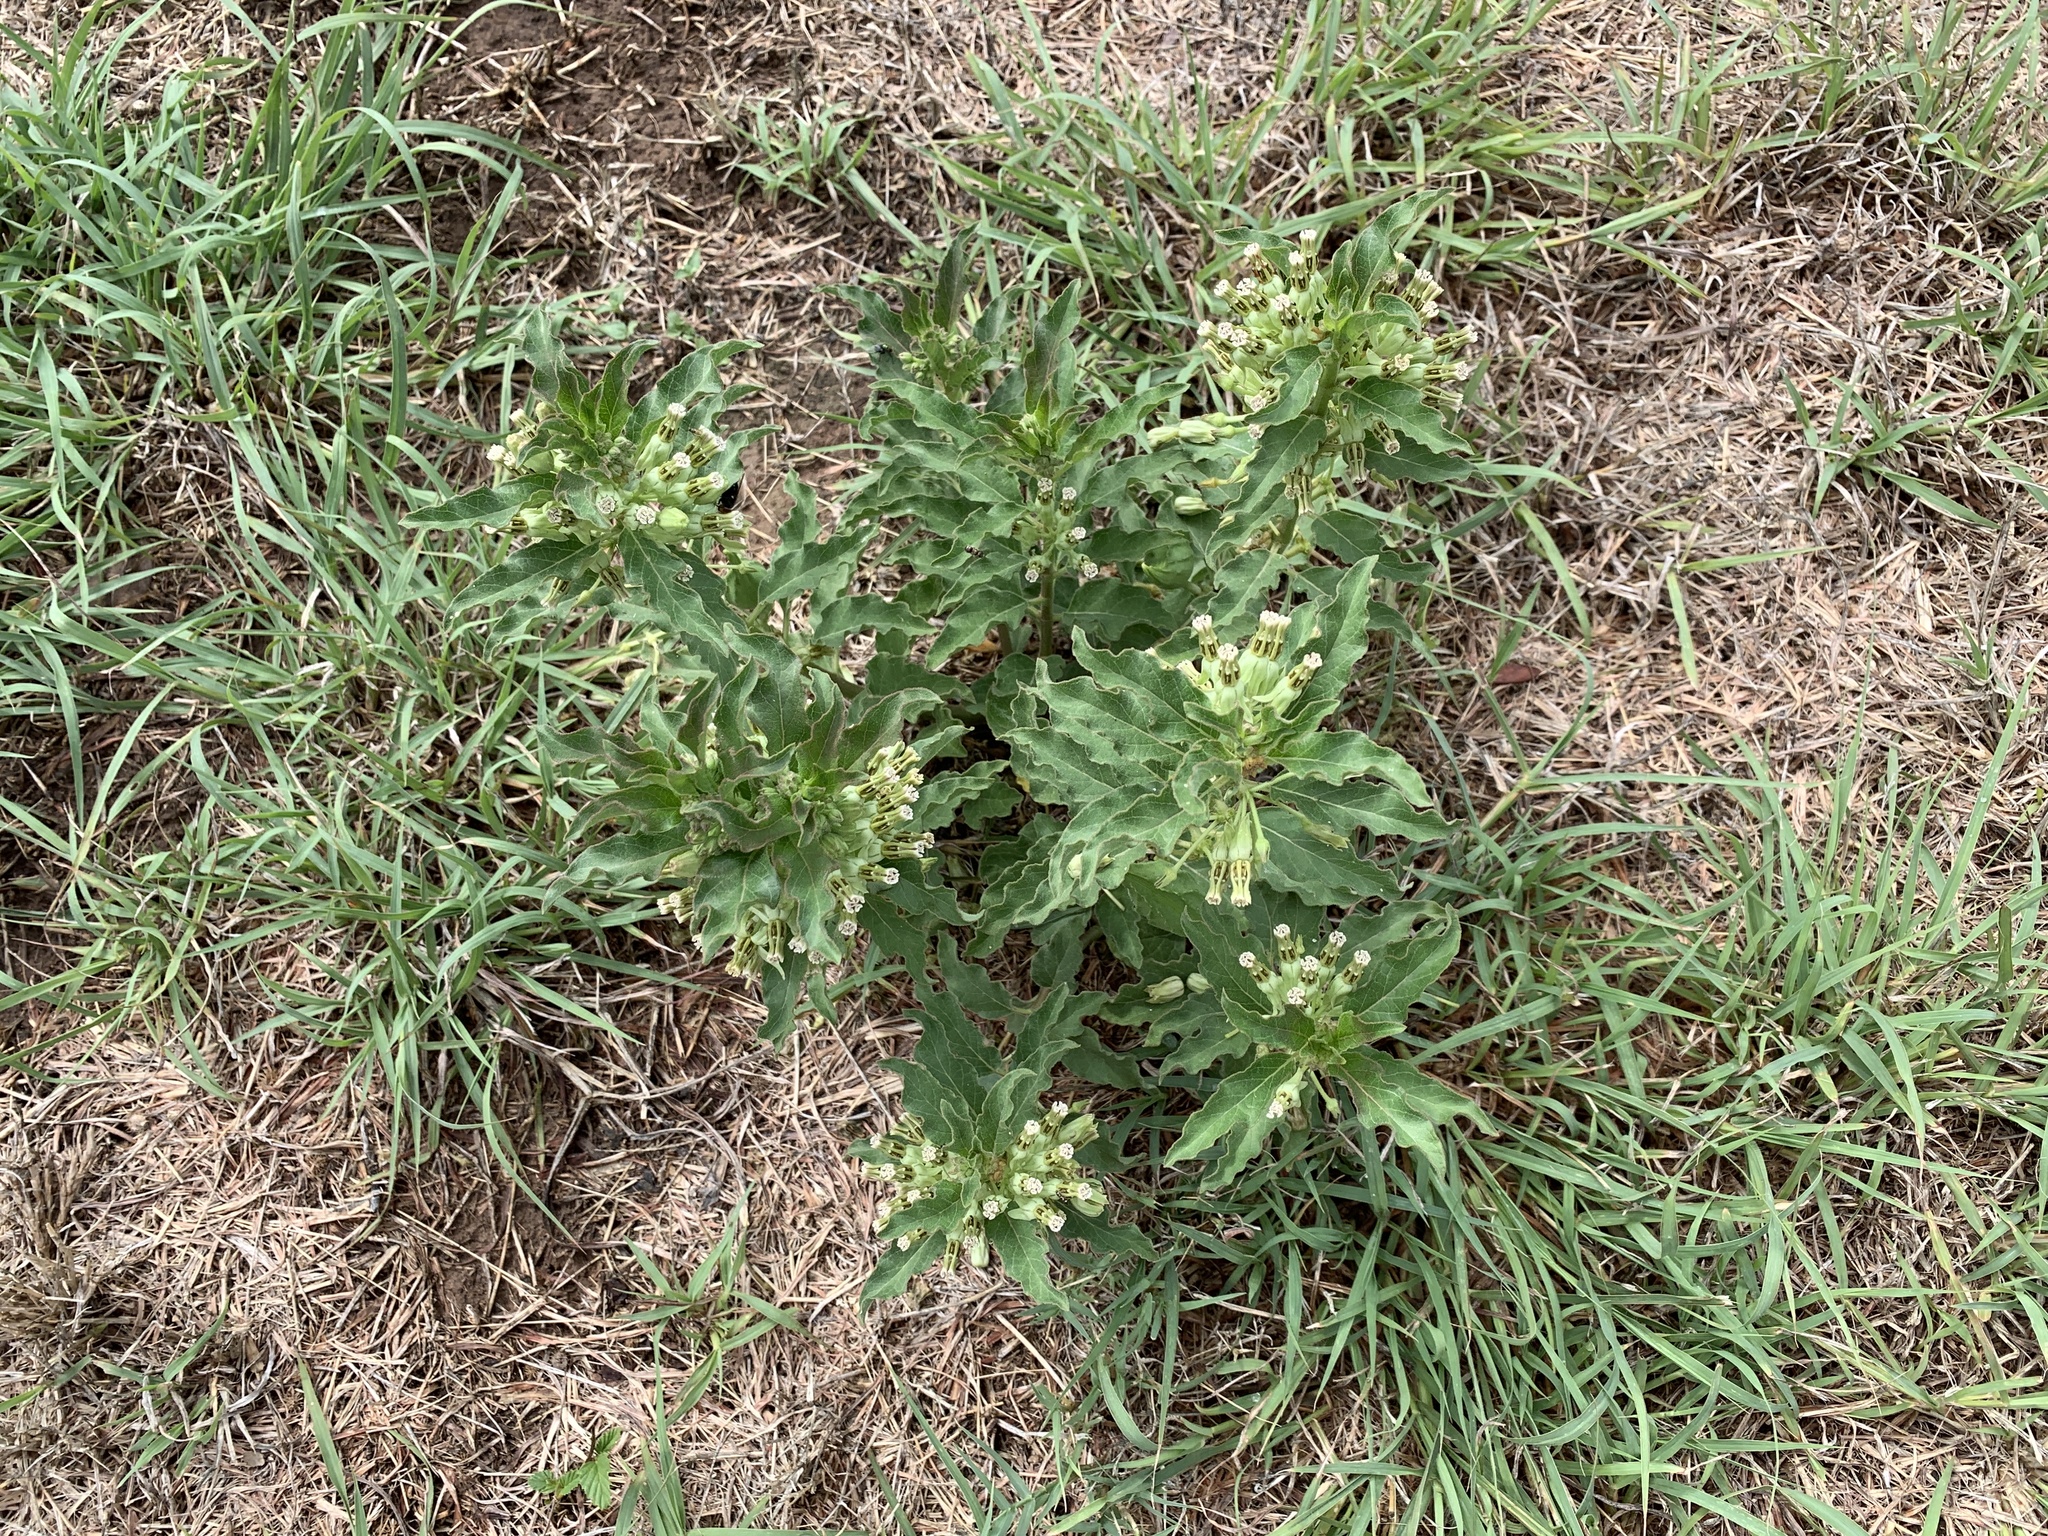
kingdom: Plantae
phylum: Tracheophyta
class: Magnoliopsida
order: Gentianales
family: Apocynaceae
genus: Asclepias
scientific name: Asclepias oenotheroides
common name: Zizotes milkweed
